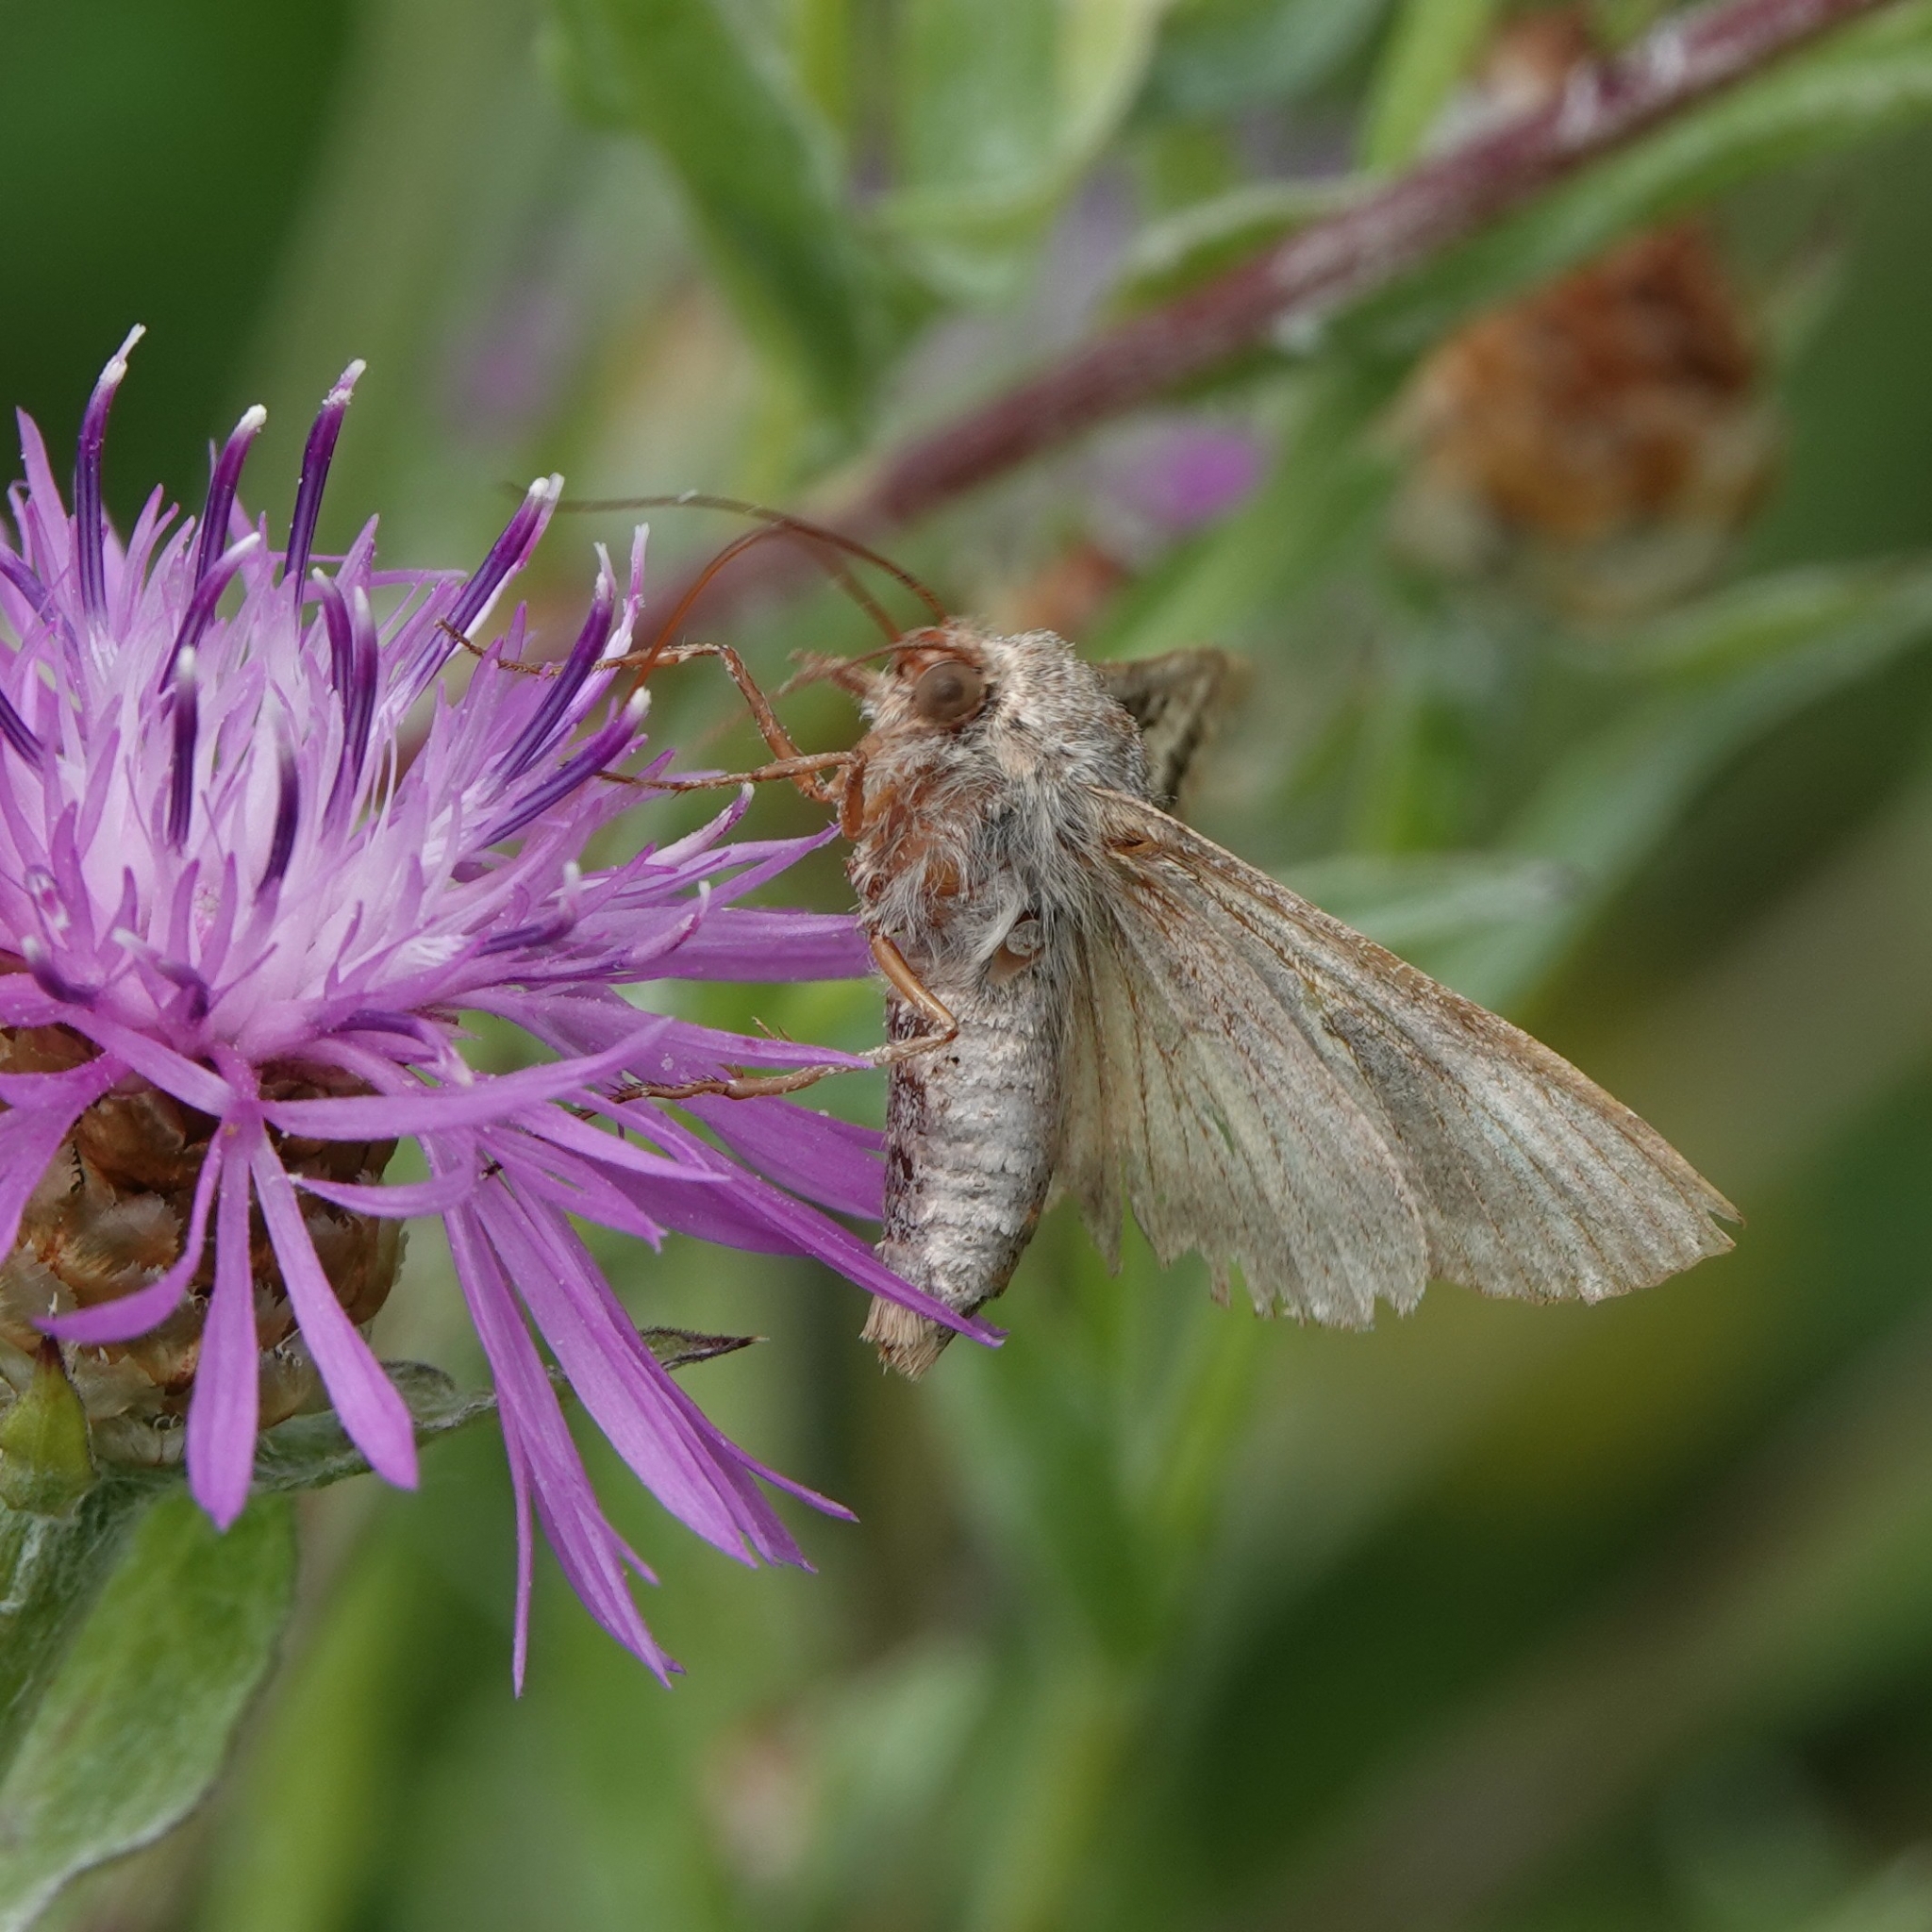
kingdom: Animalia
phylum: Arthropoda
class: Insecta
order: Lepidoptera
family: Noctuidae
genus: Autographa
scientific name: Autographa gamma
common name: Silver y
